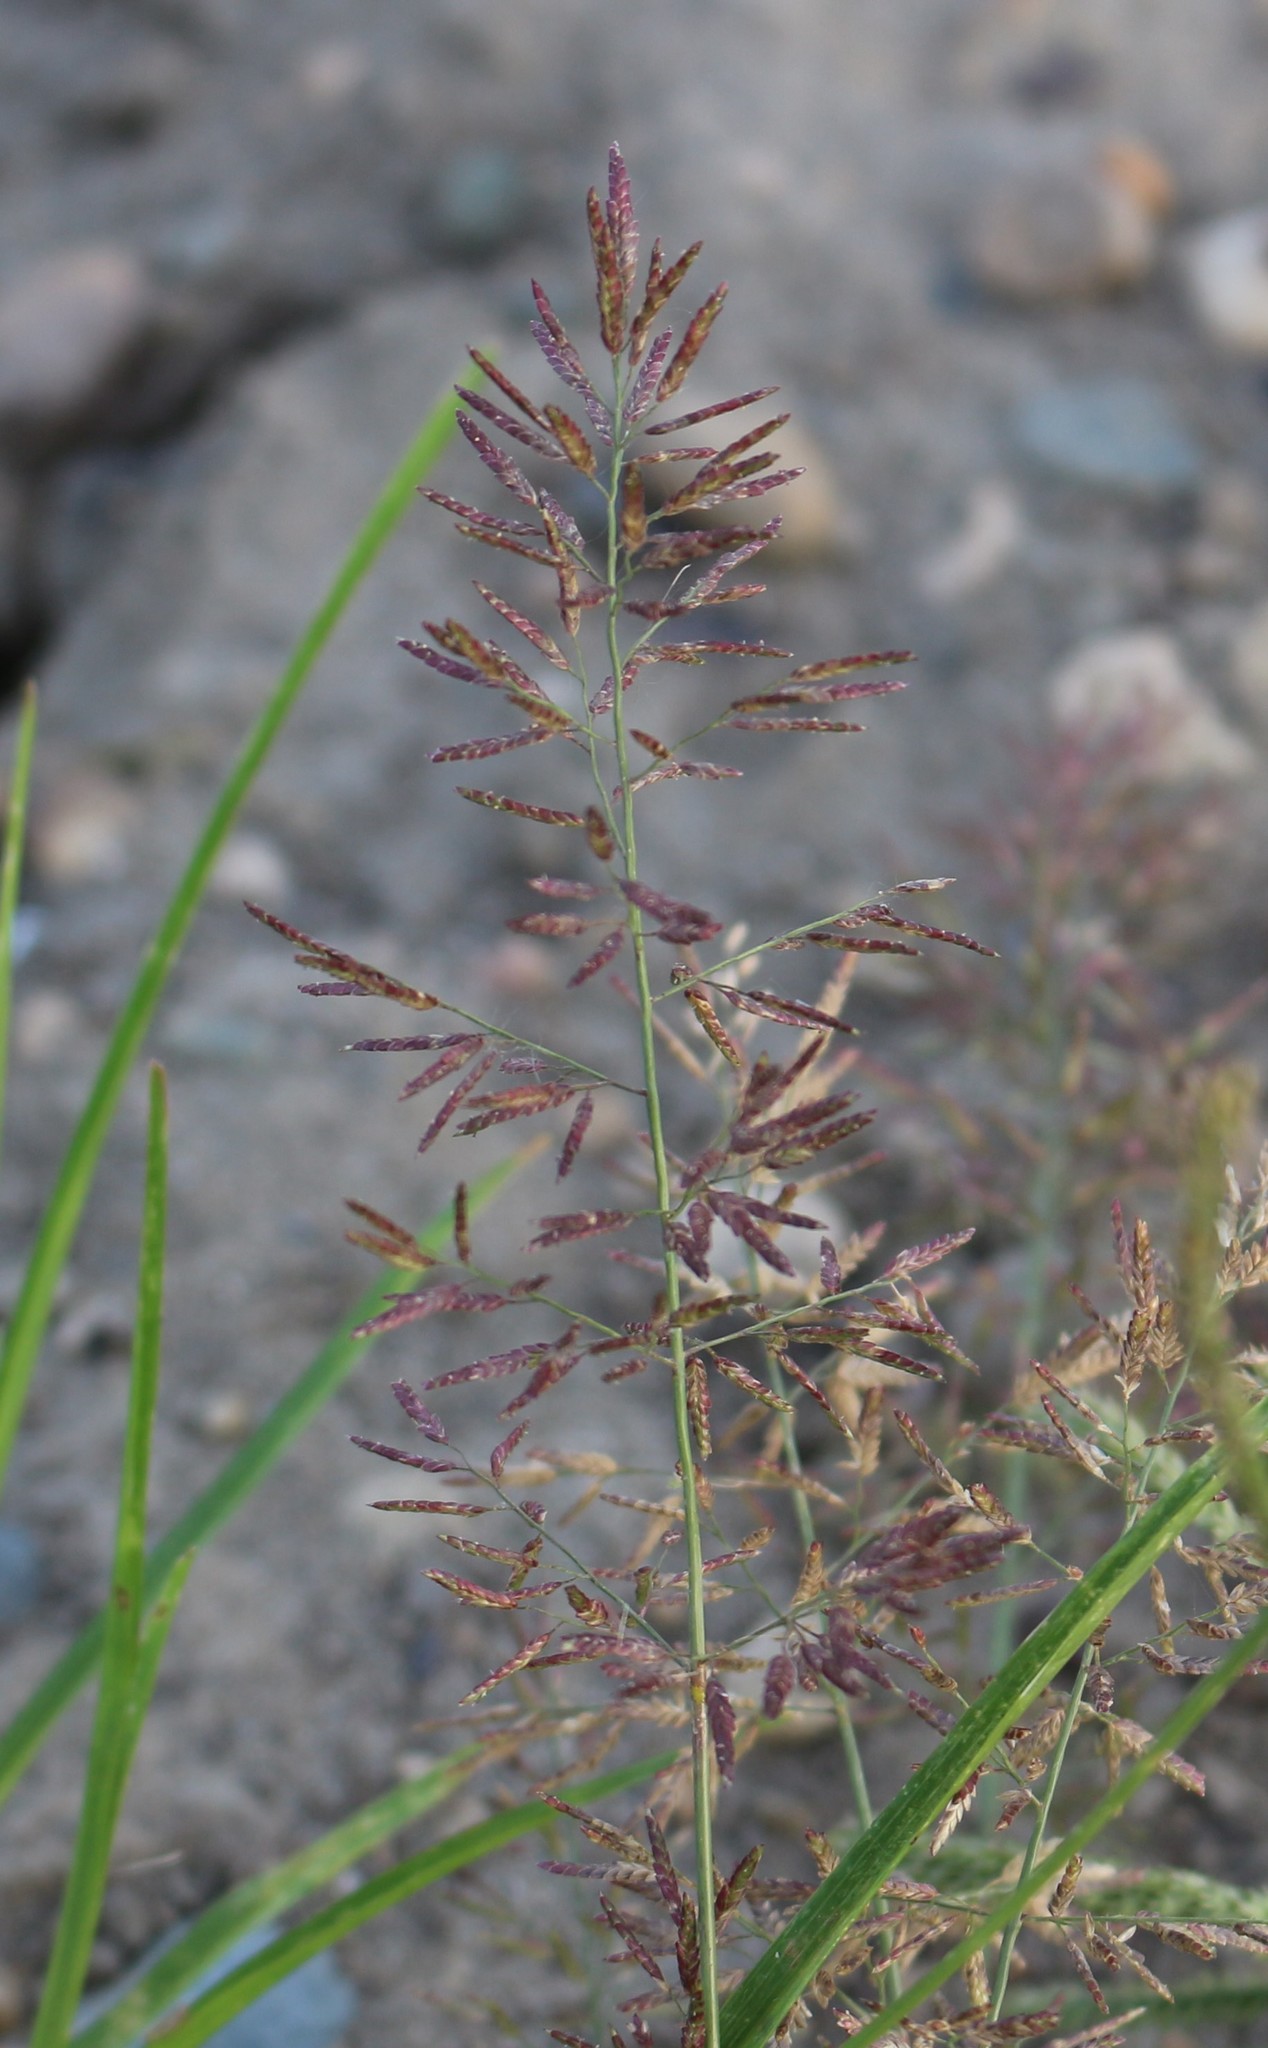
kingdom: Plantae
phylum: Tracheophyta
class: Liliopsida
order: Poales
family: Poaceae
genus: Eragrostis
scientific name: Eragrostis minor
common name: Small love-grass
